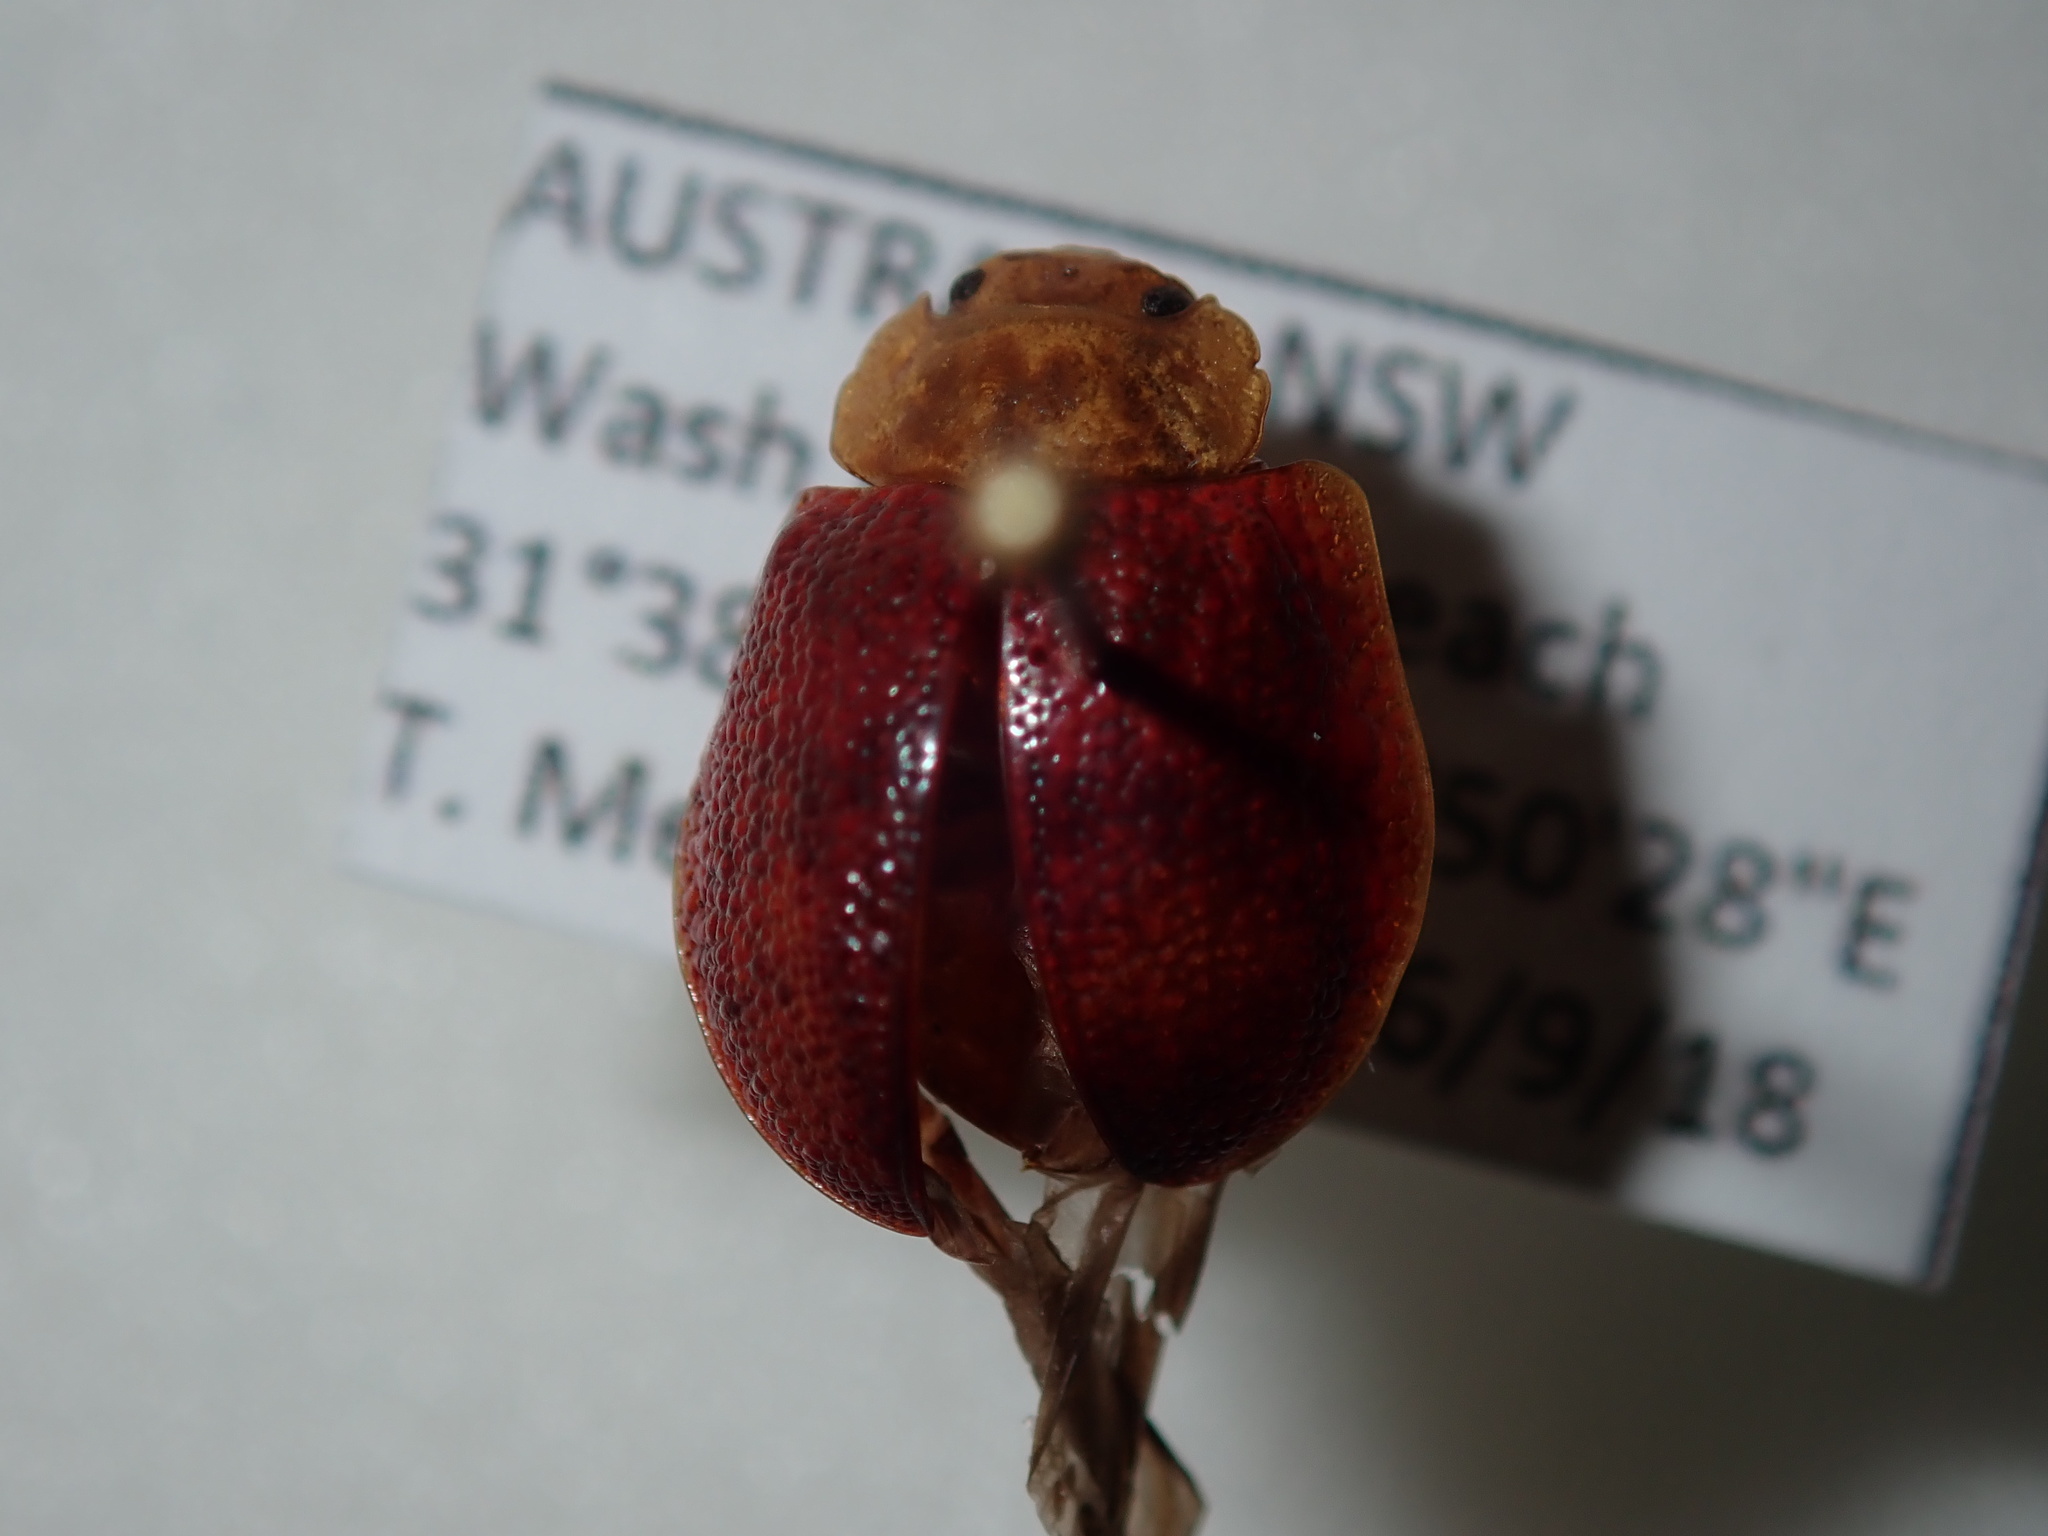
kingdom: Animalia
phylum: Arthropoda
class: Insecta
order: Coleoptera
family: Chrysomelidae
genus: Paropsis
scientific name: Paropsis
